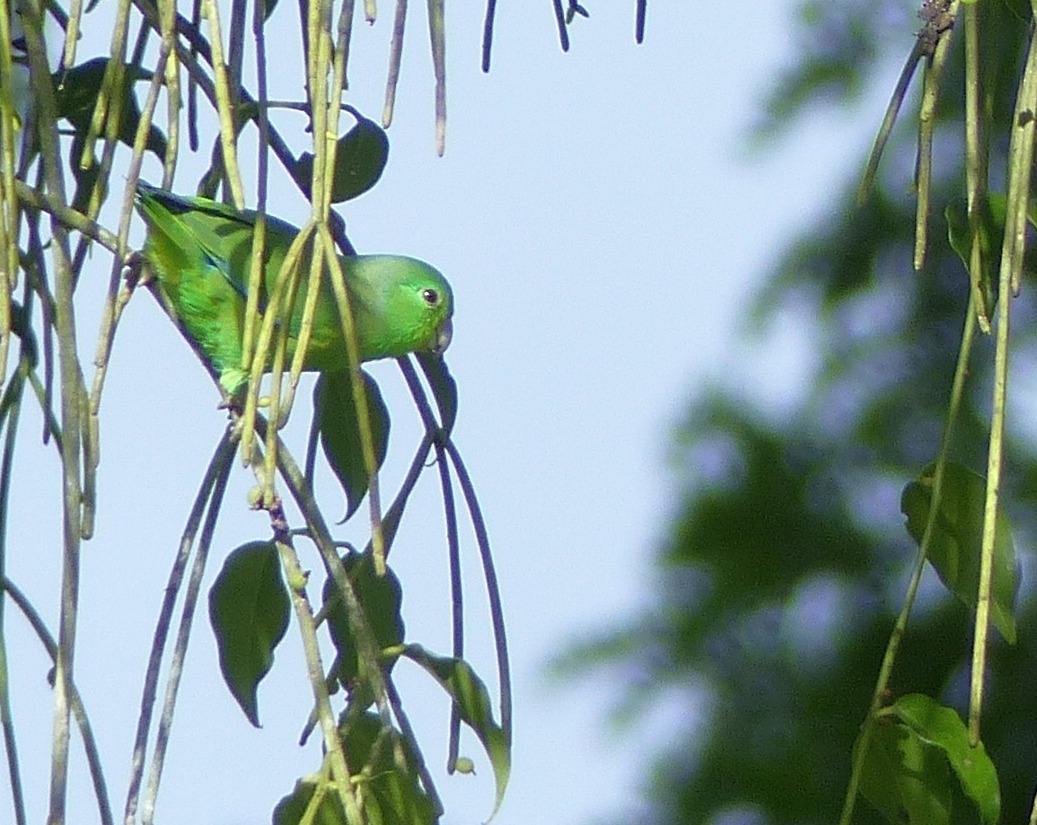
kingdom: Animalia
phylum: Chordata
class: Aves
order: Psittaciformes
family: Psittacidae
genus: Forpus
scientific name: Forpus xanthopterygius
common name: Blue-winged parrotlet
